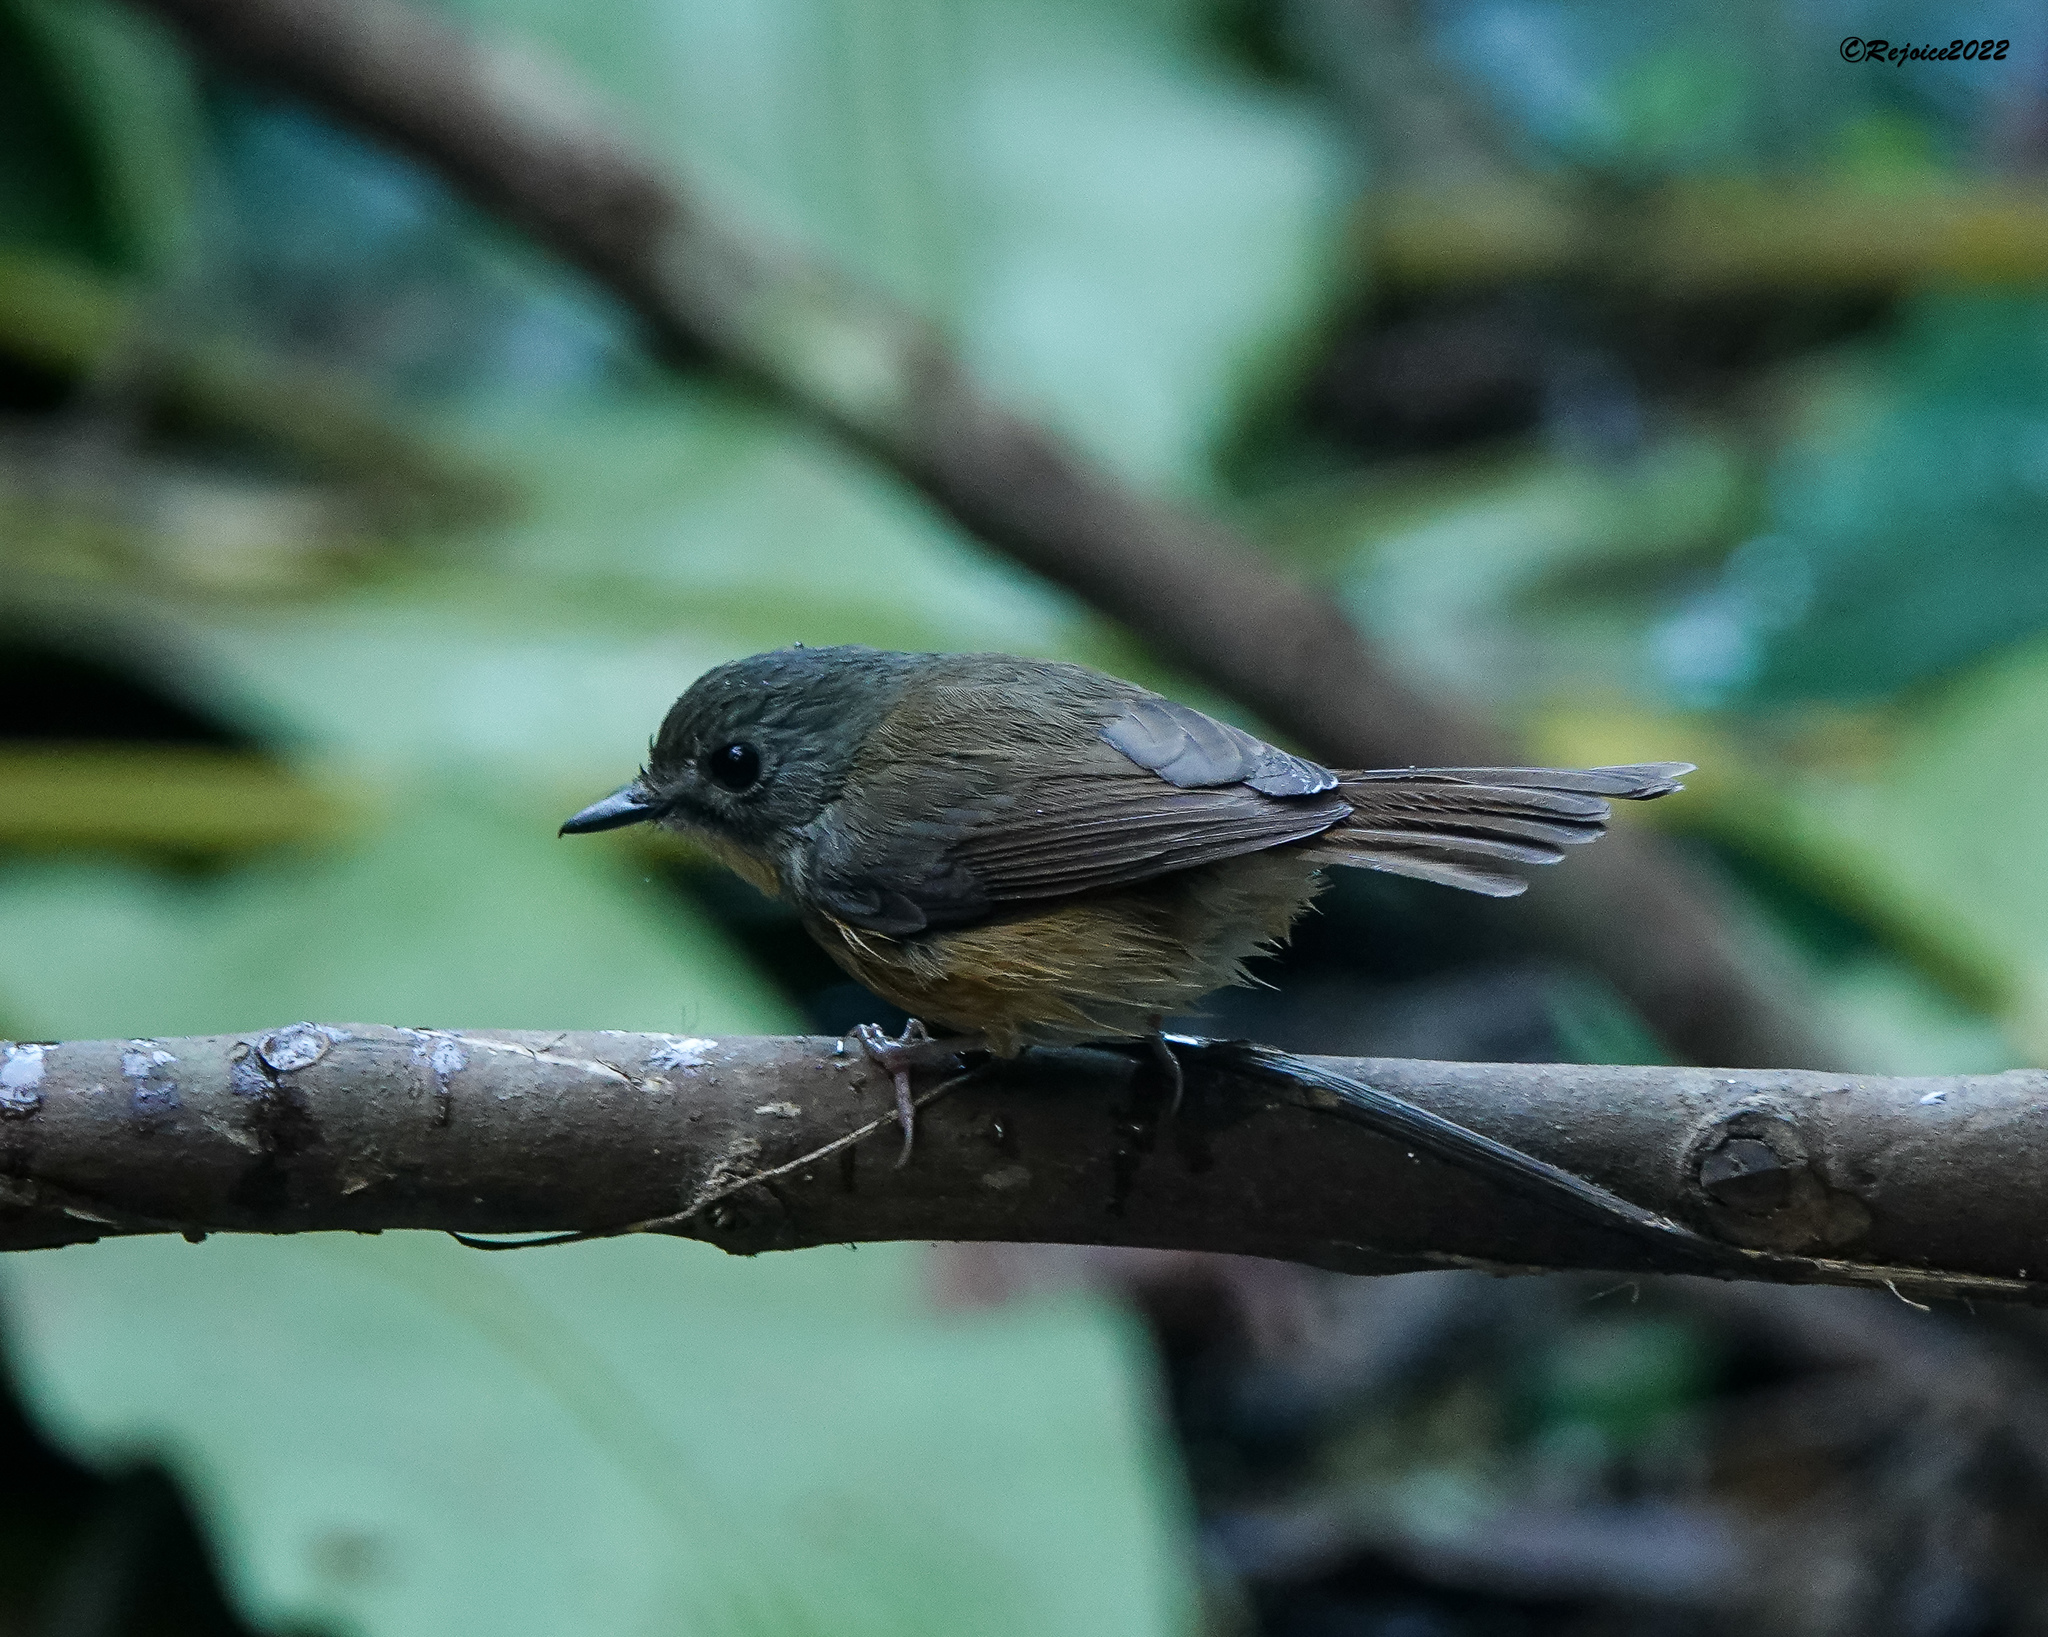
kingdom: Animalia
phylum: Chordata
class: Aves
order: Passeriformes
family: Muscicapidae
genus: Cyornis
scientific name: Cyornis poliogenys
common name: Pale-chinned blue flycatcher
